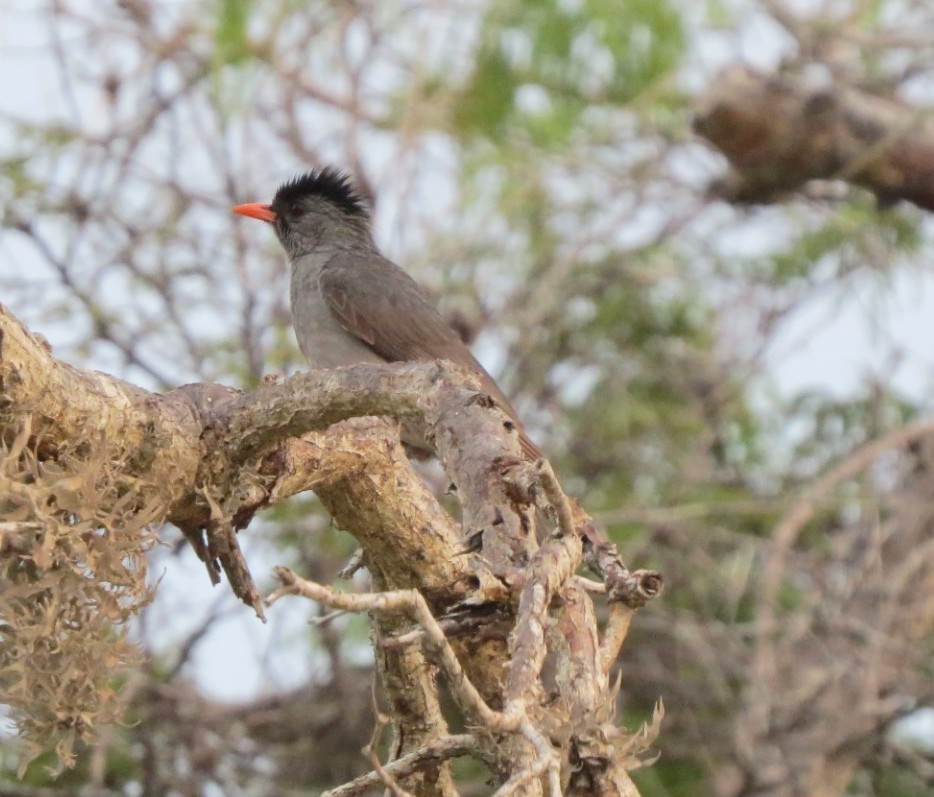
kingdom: Animalia
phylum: Chordata
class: Aves
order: Passeriformes
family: Pycnonotidae
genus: Hypsipetes
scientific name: Hypsipetes madagascariensis
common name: Malagasy bulbul
